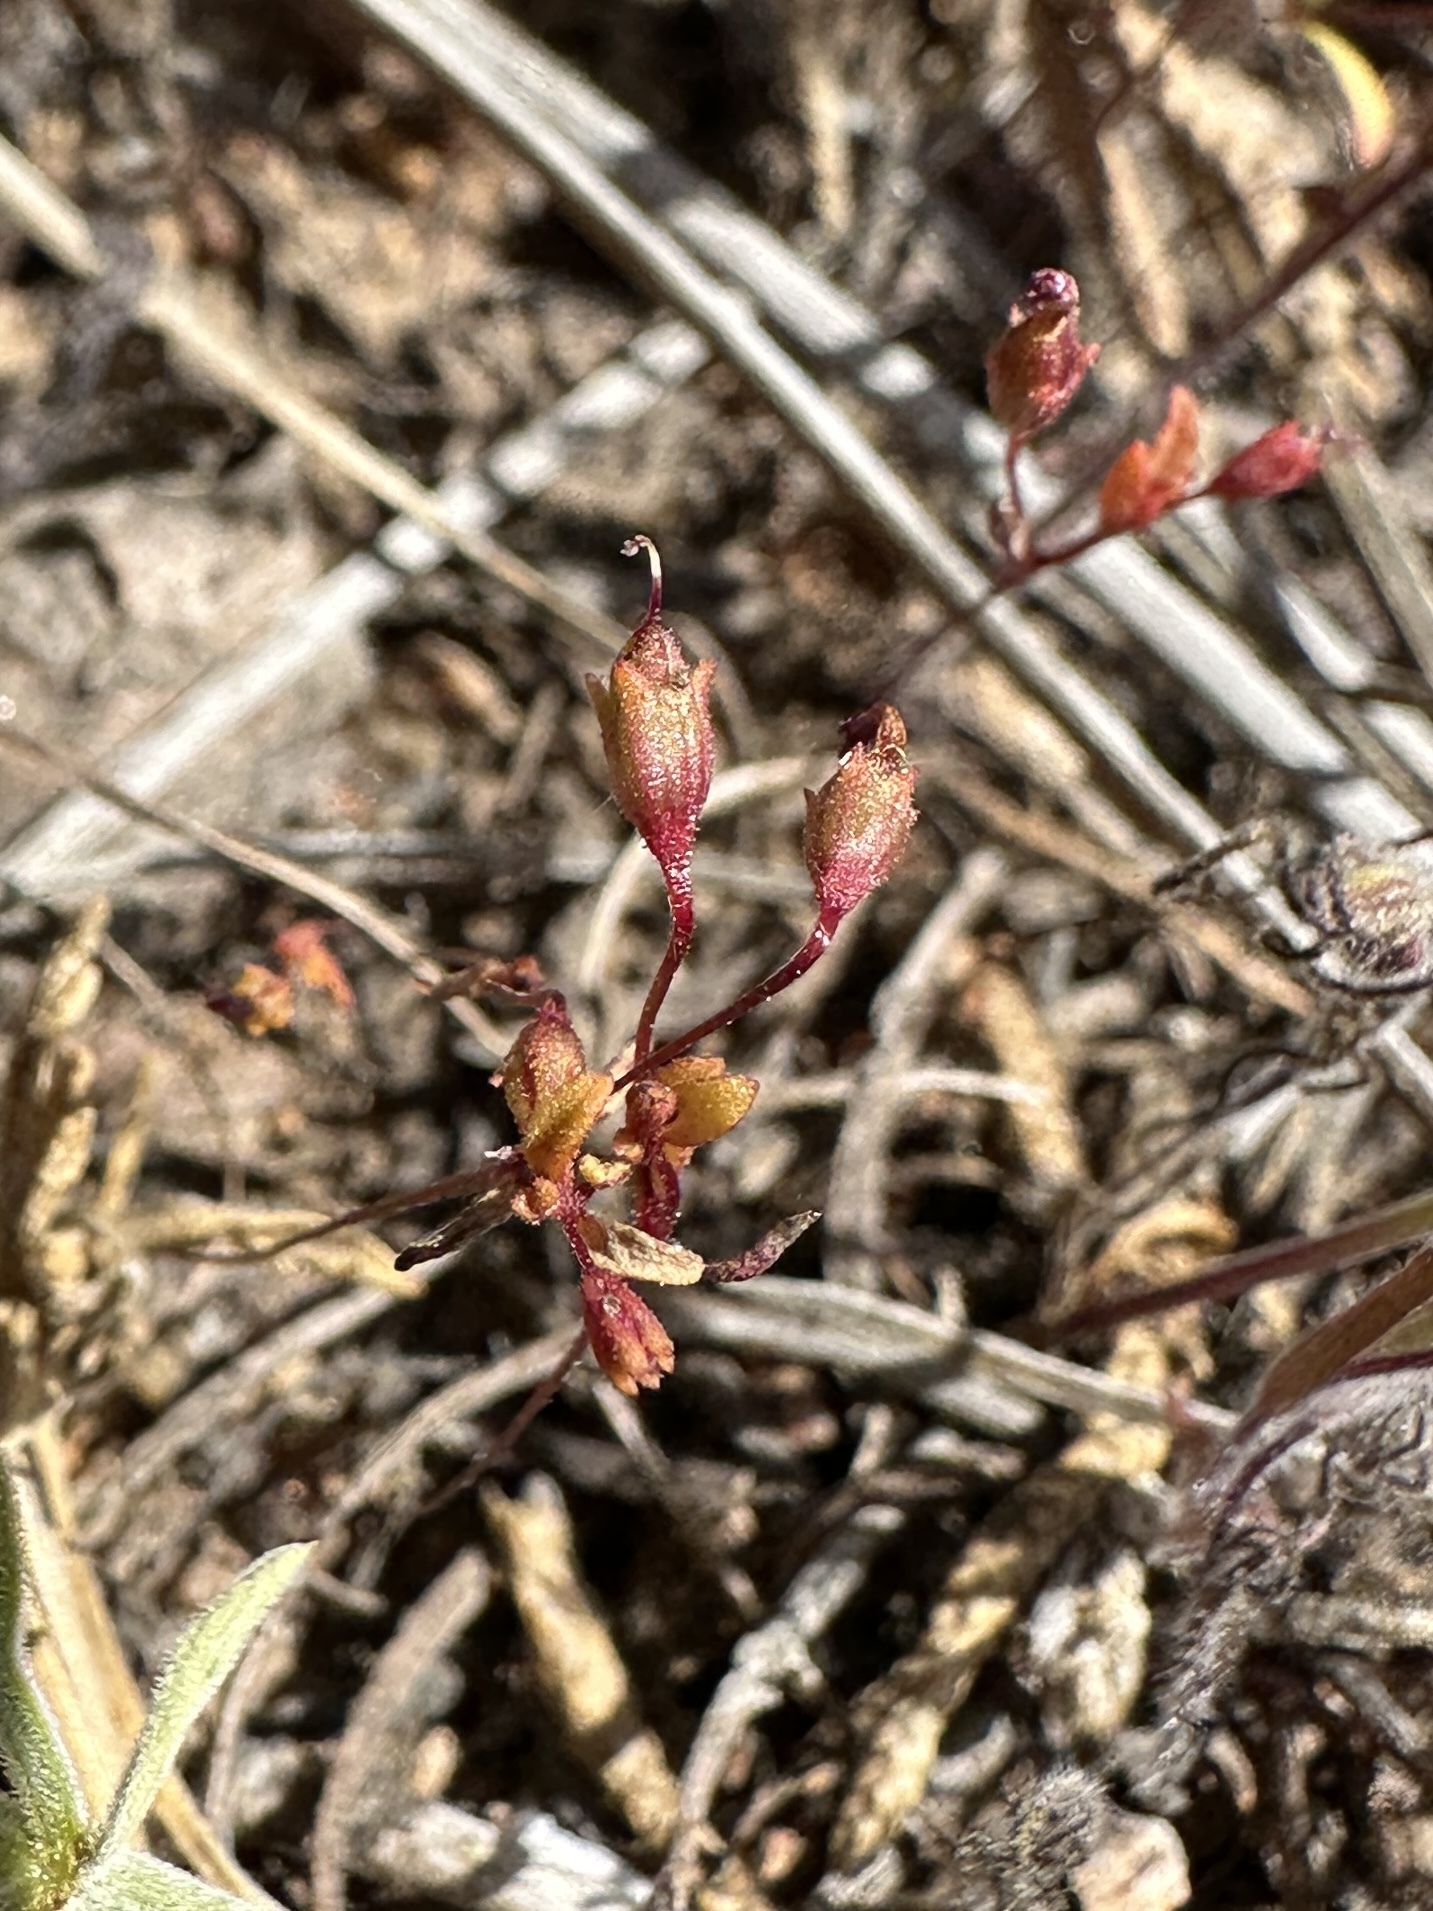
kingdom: Plantae
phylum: Tracheophyta
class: Magnoliopsida
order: Lamiales
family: Phrymaceae
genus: Erythranthe
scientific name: Erythranthe exigua
